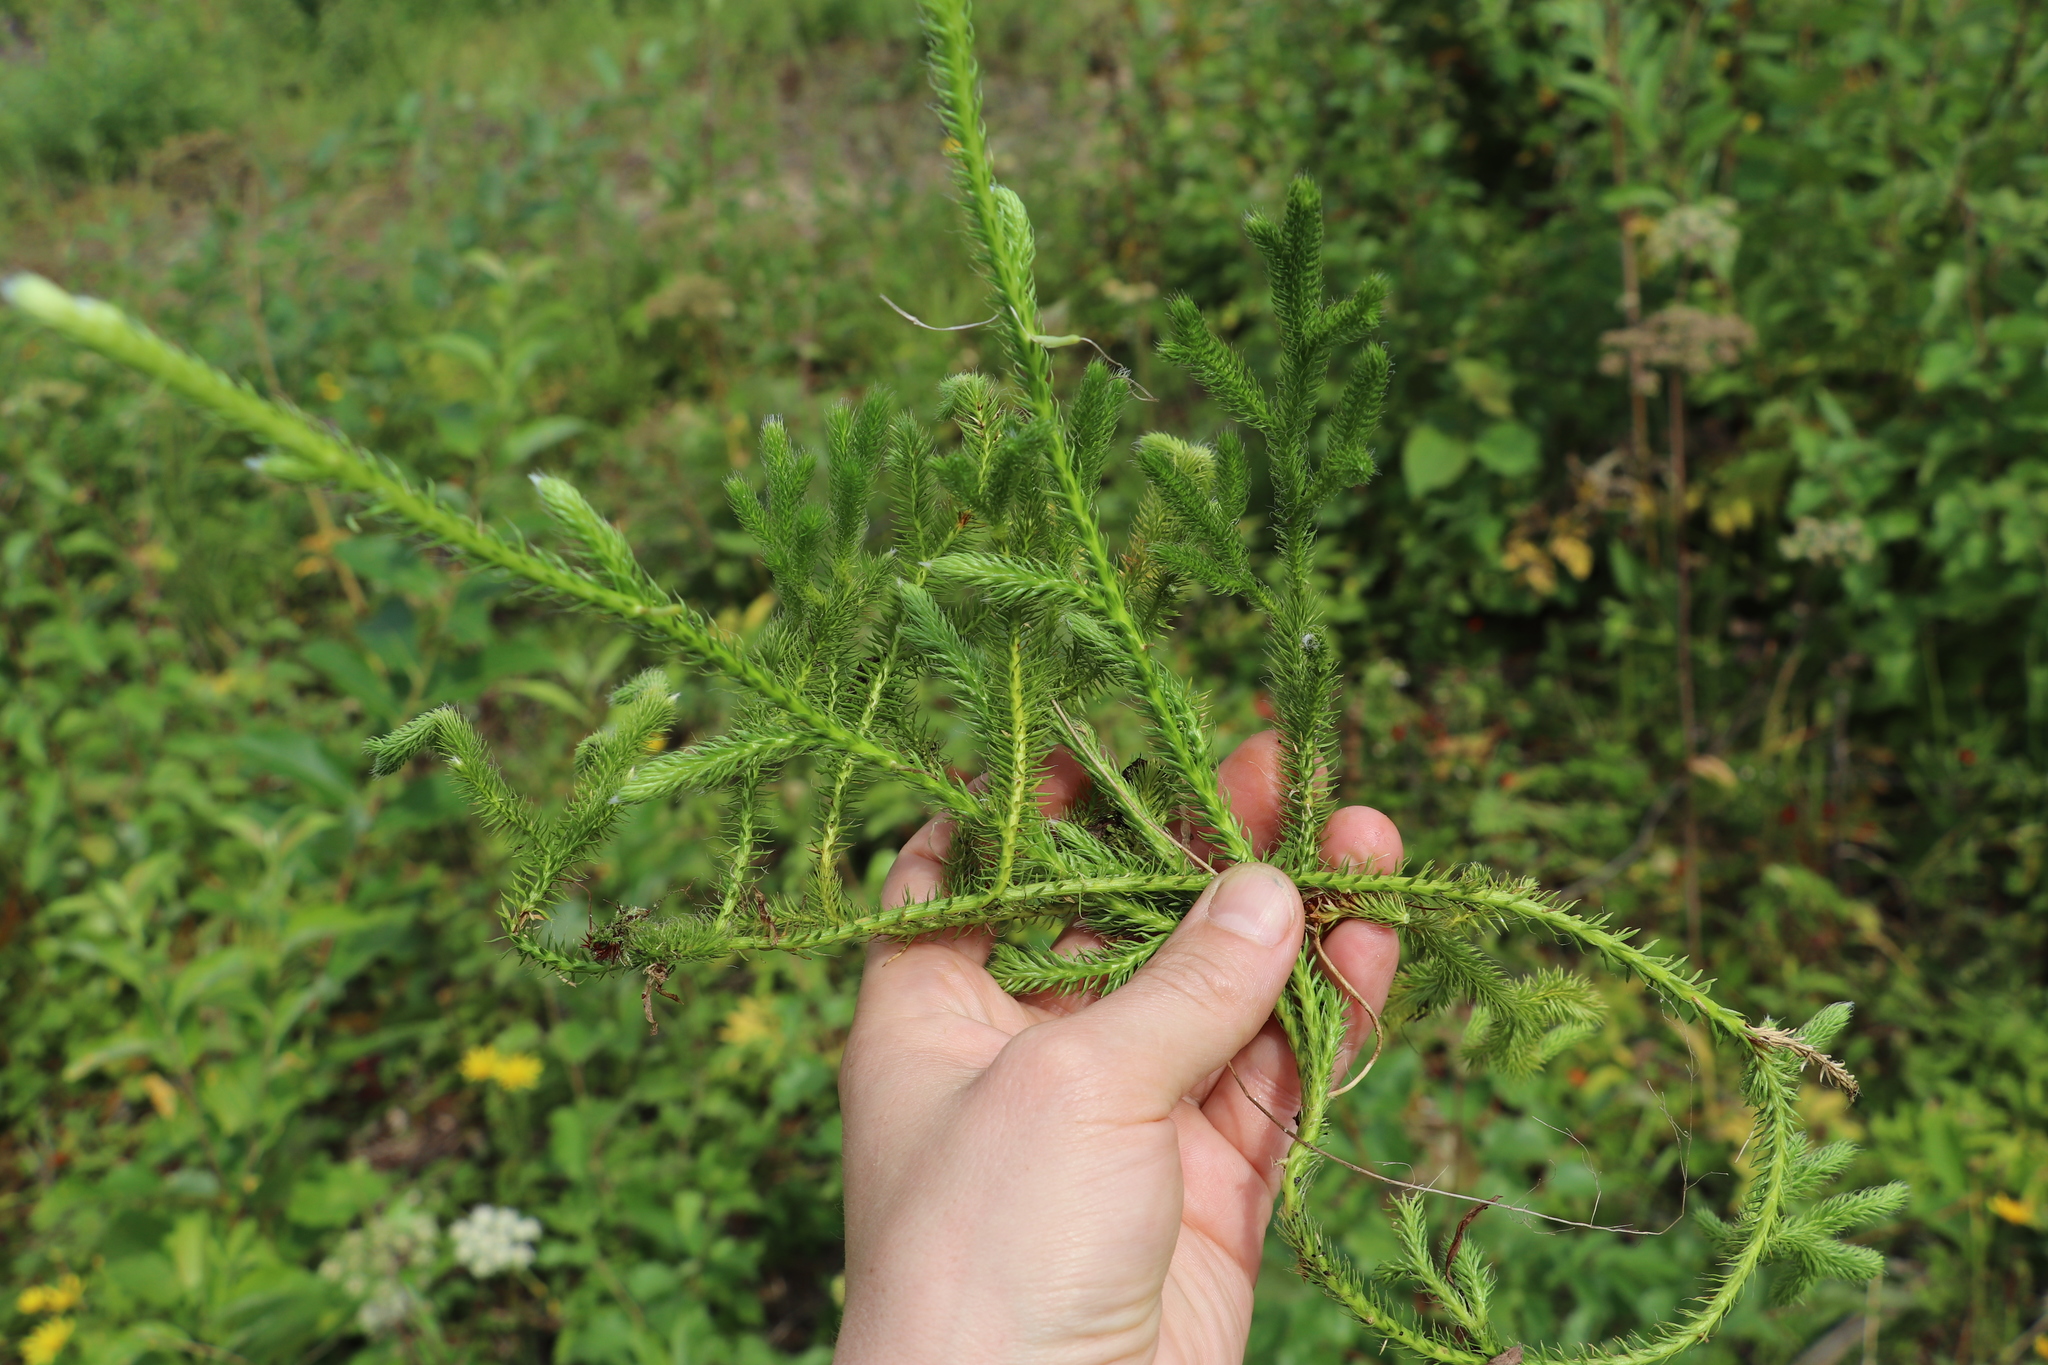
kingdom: Plantae
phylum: Tracheophyta
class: Lycopodiopsida
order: Lycopodiales
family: Lycopodiaceae
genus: Lycopodium
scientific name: Lycopodium clavatum
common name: Stag's-horn clubmoss
